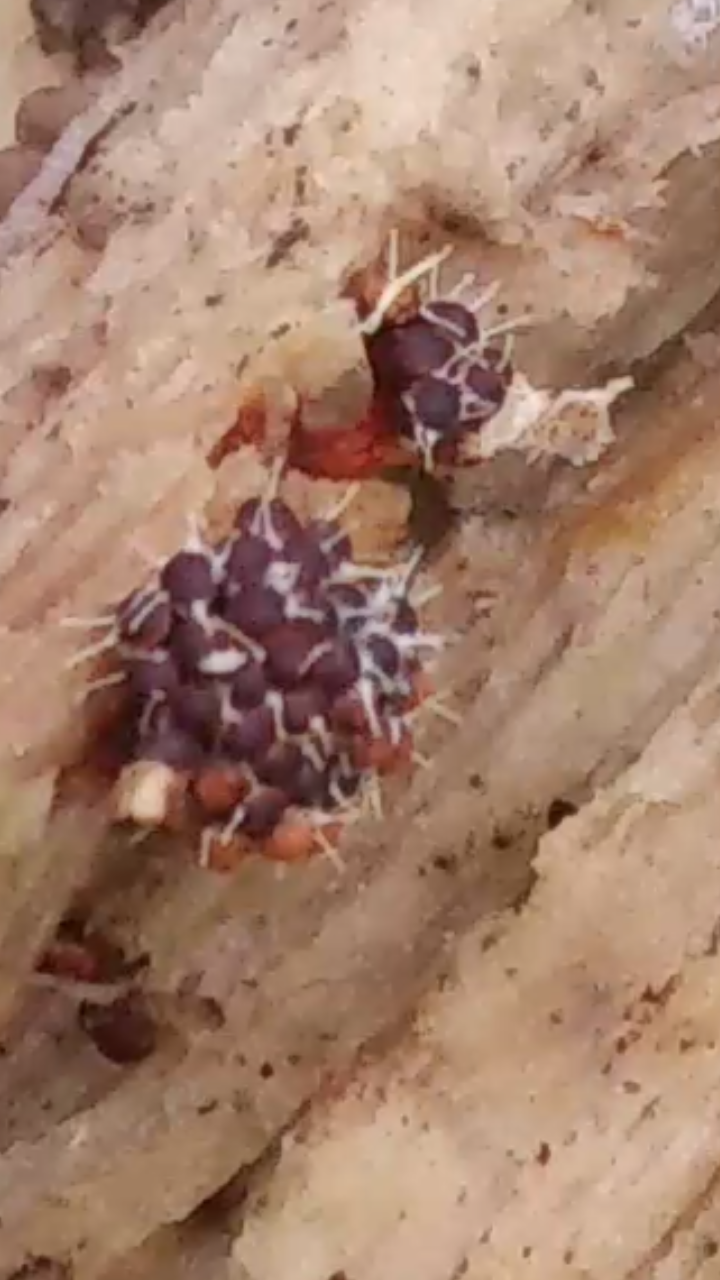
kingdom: Fungi
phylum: Ascomycota
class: Sordariomycetes
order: Hypocreales
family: Ophiocordycipitaceae
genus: Polycephalomyces
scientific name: Polycephalomyces tomentosus
